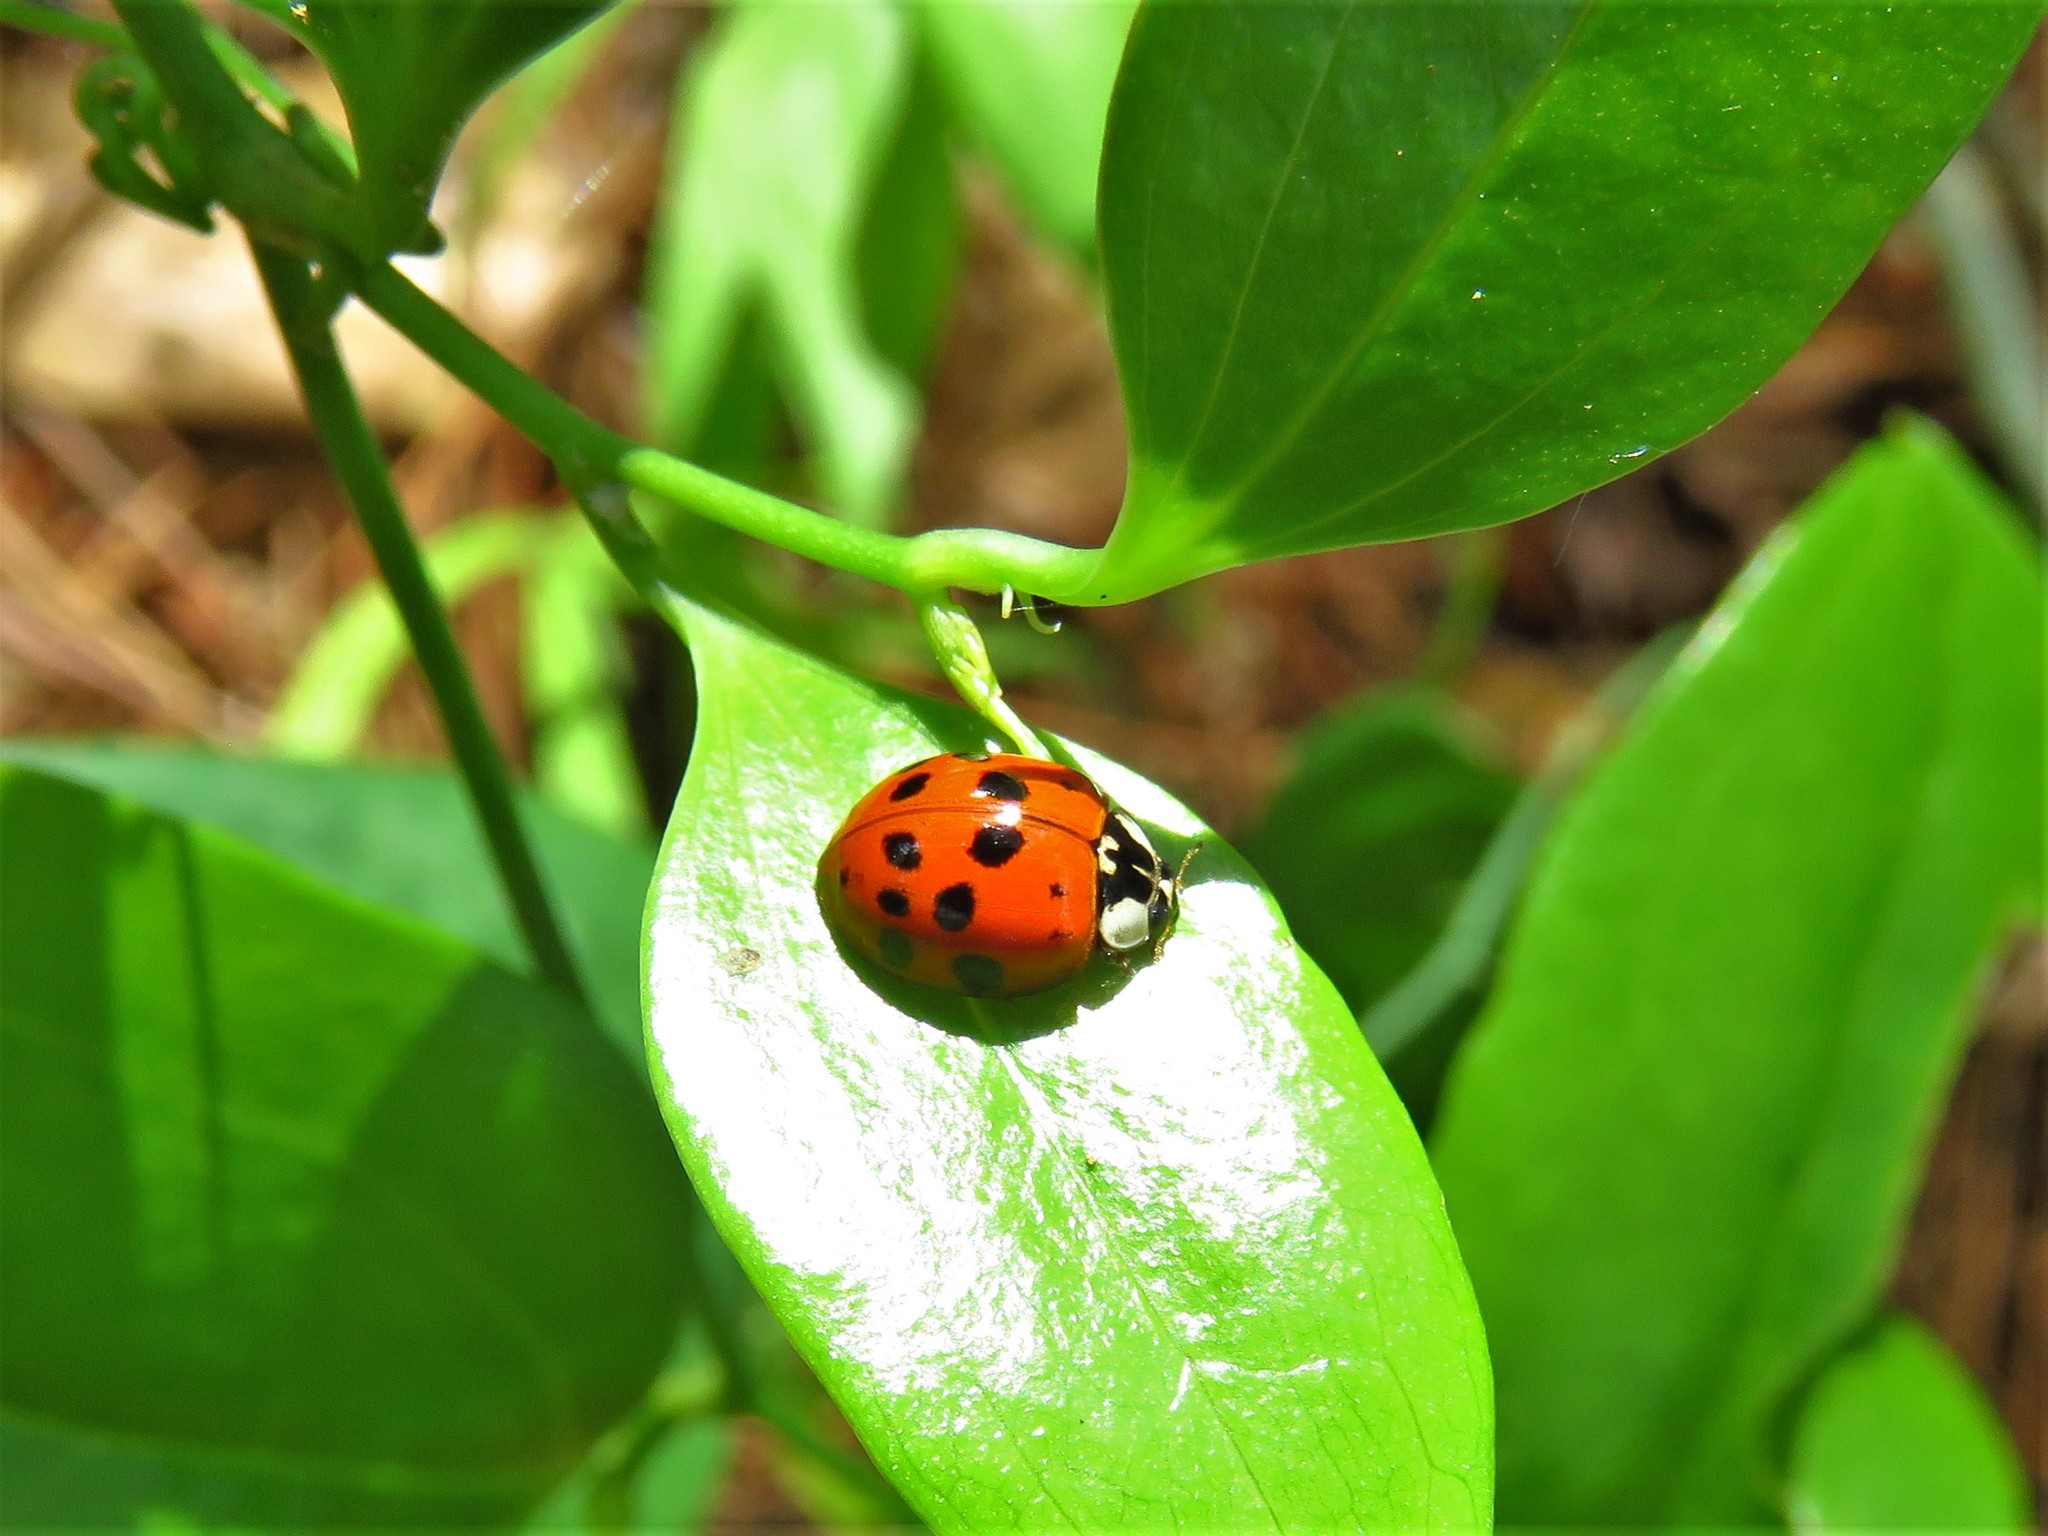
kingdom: Animalia
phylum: Arthropoda
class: Insecta
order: Coleoptera
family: Coccinellidae
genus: Harmonia
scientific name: Harmonia axyridis
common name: Harlequin ladybird
